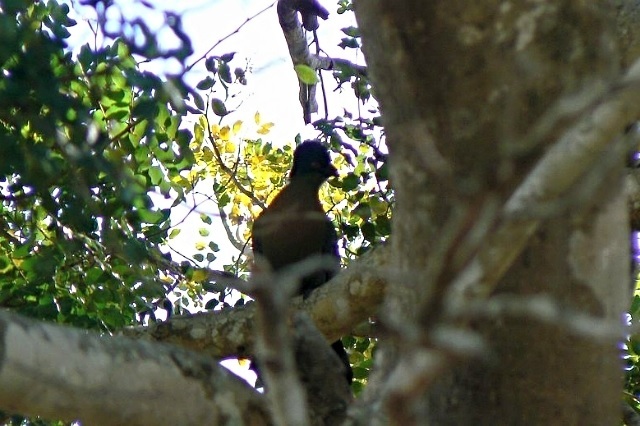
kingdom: Animalia
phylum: Chordata
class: Aves
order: Musophagiformes
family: Musophagidae
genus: Tauraco
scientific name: Tauraco porphyreolophus
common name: Purple-crested turaco
